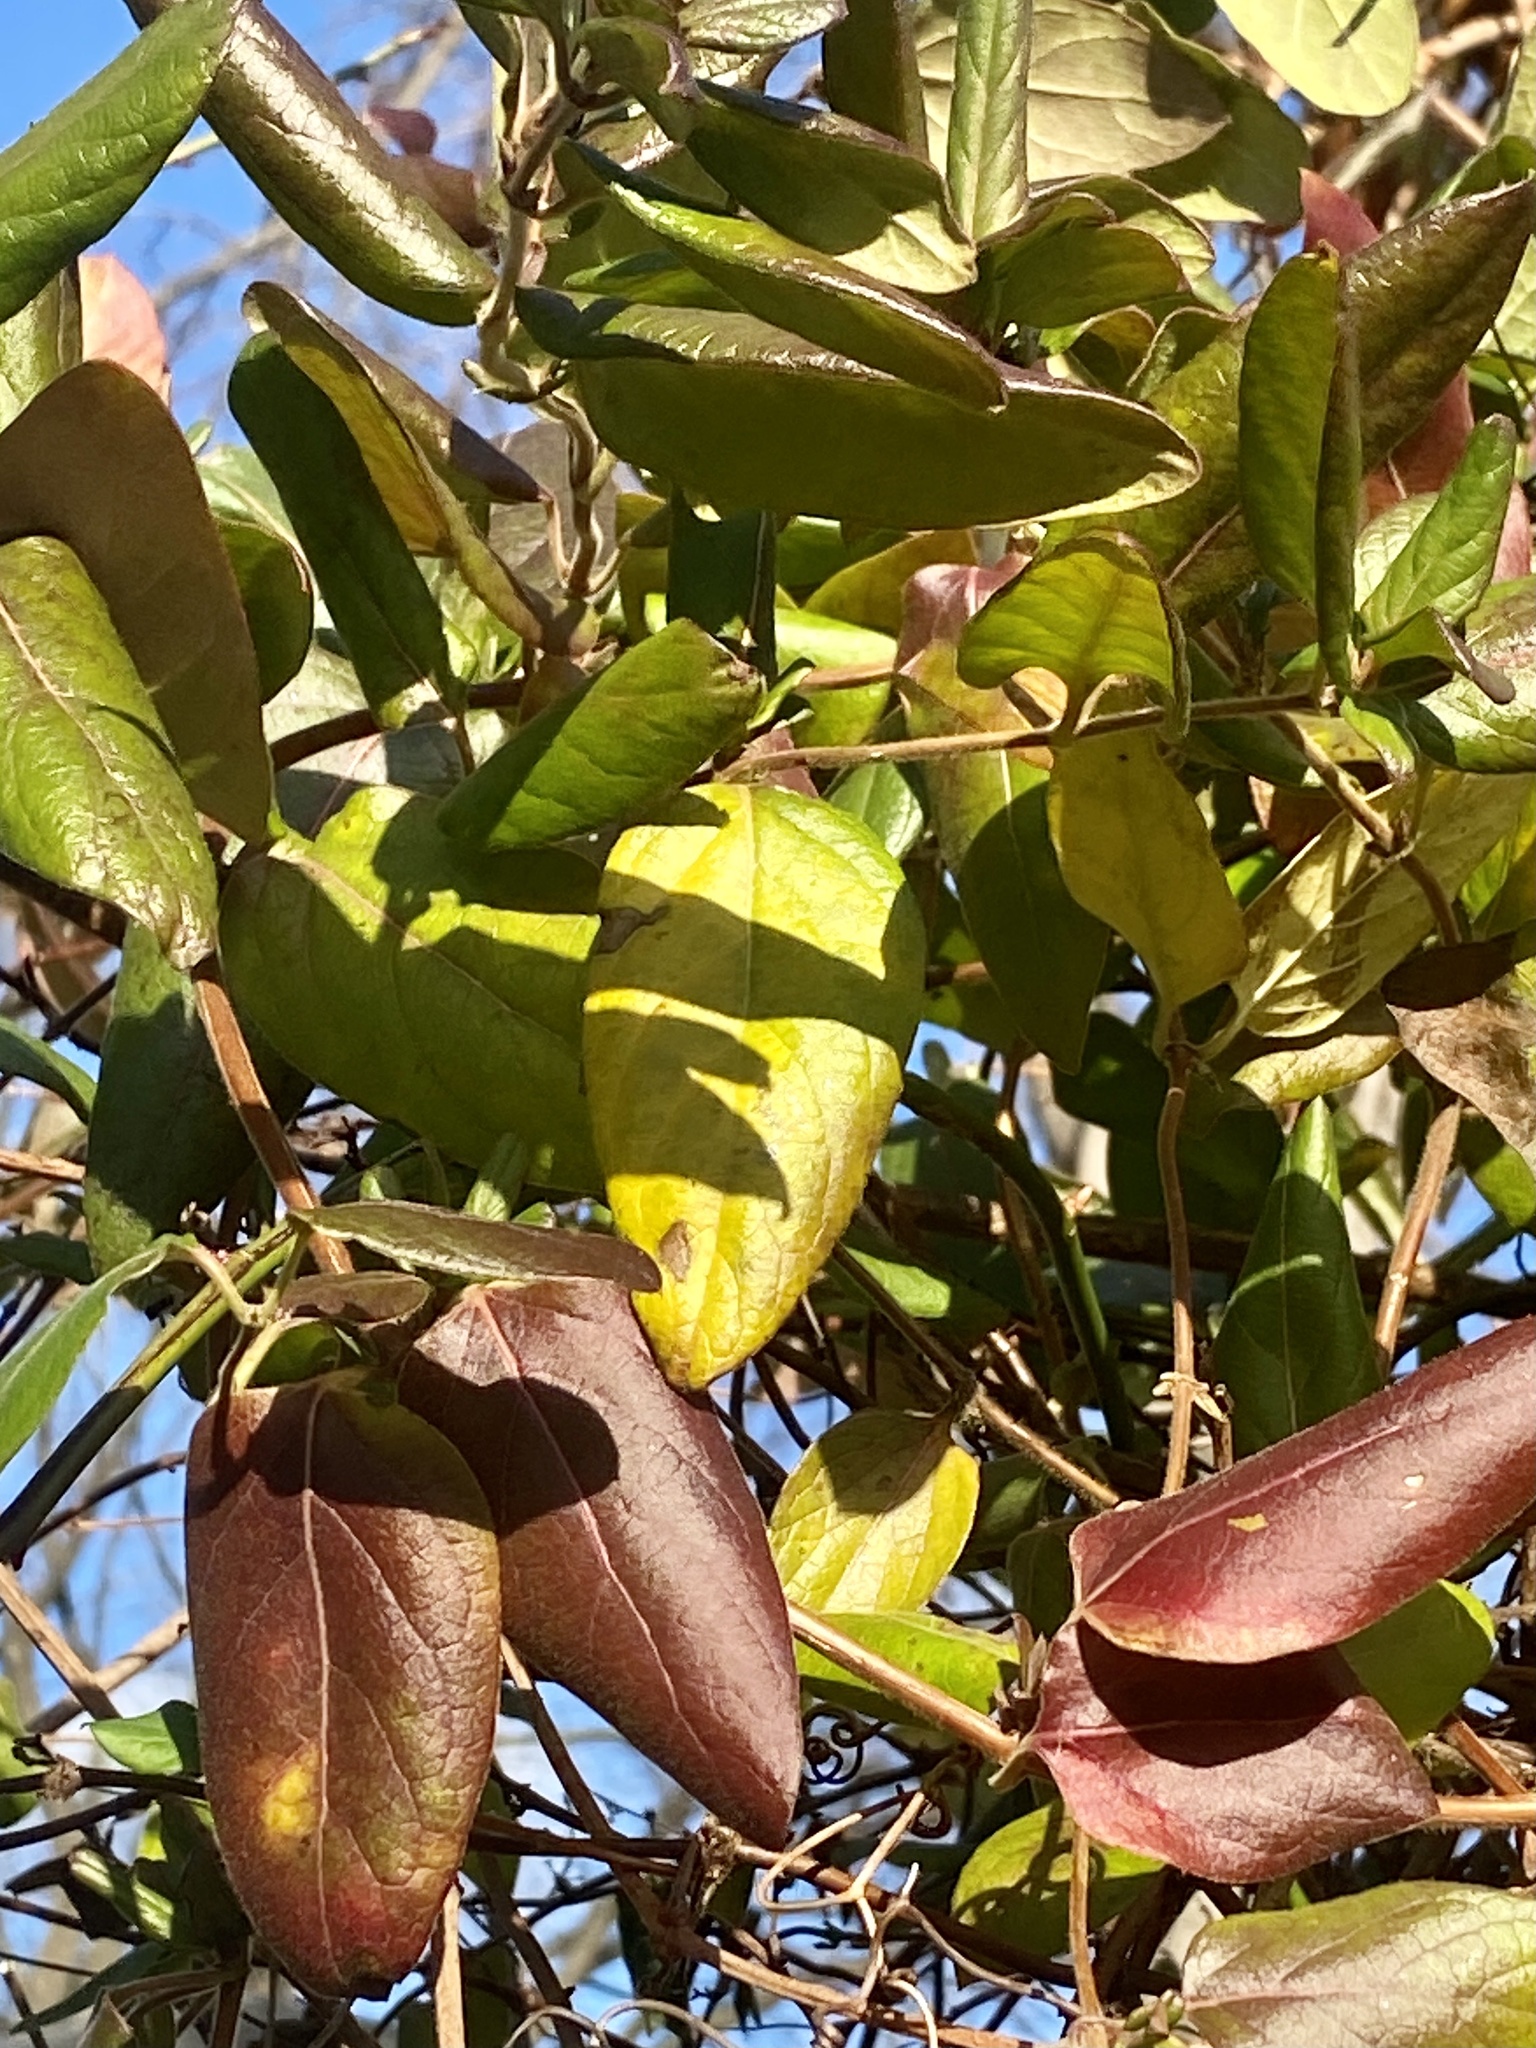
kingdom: Plantae
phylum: Tracheophyta
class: Magnoliopsida
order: Dipsacales
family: Caprifoliaceae
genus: Lonicera
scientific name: Lonicera japonica
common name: Japanese honeysuckle
